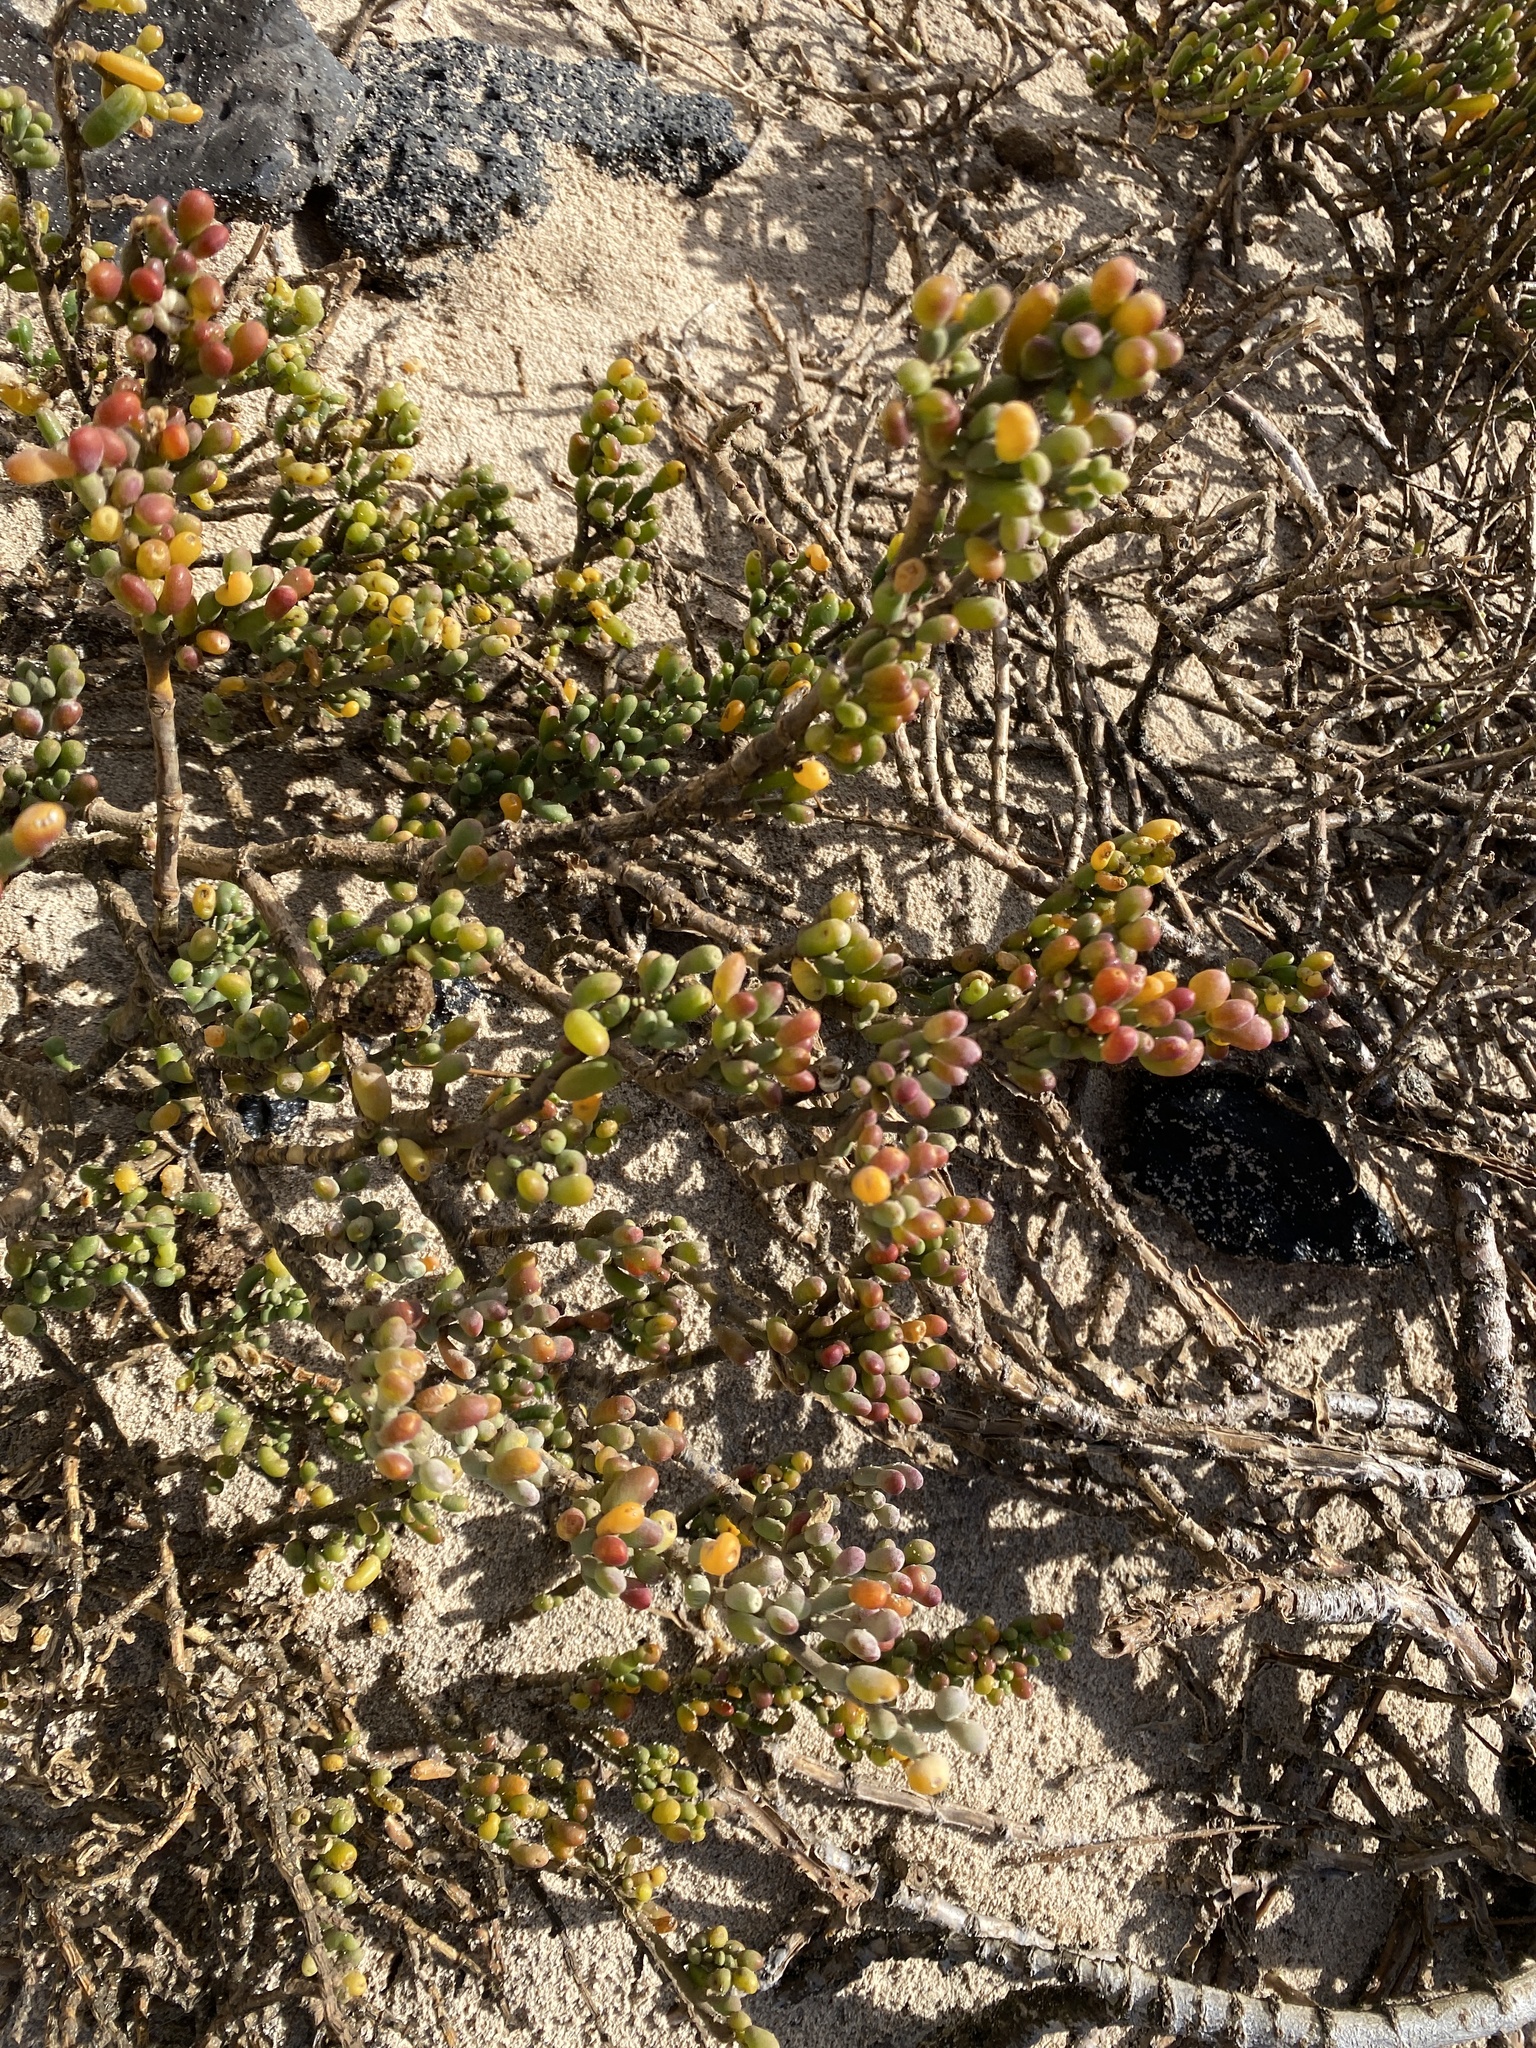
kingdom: Plantae
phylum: Tracheophyta
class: Magnoliopsida
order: Zygophyllales
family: Zygophyllaceae
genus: Tetraena
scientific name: Tetraena fontanesii
